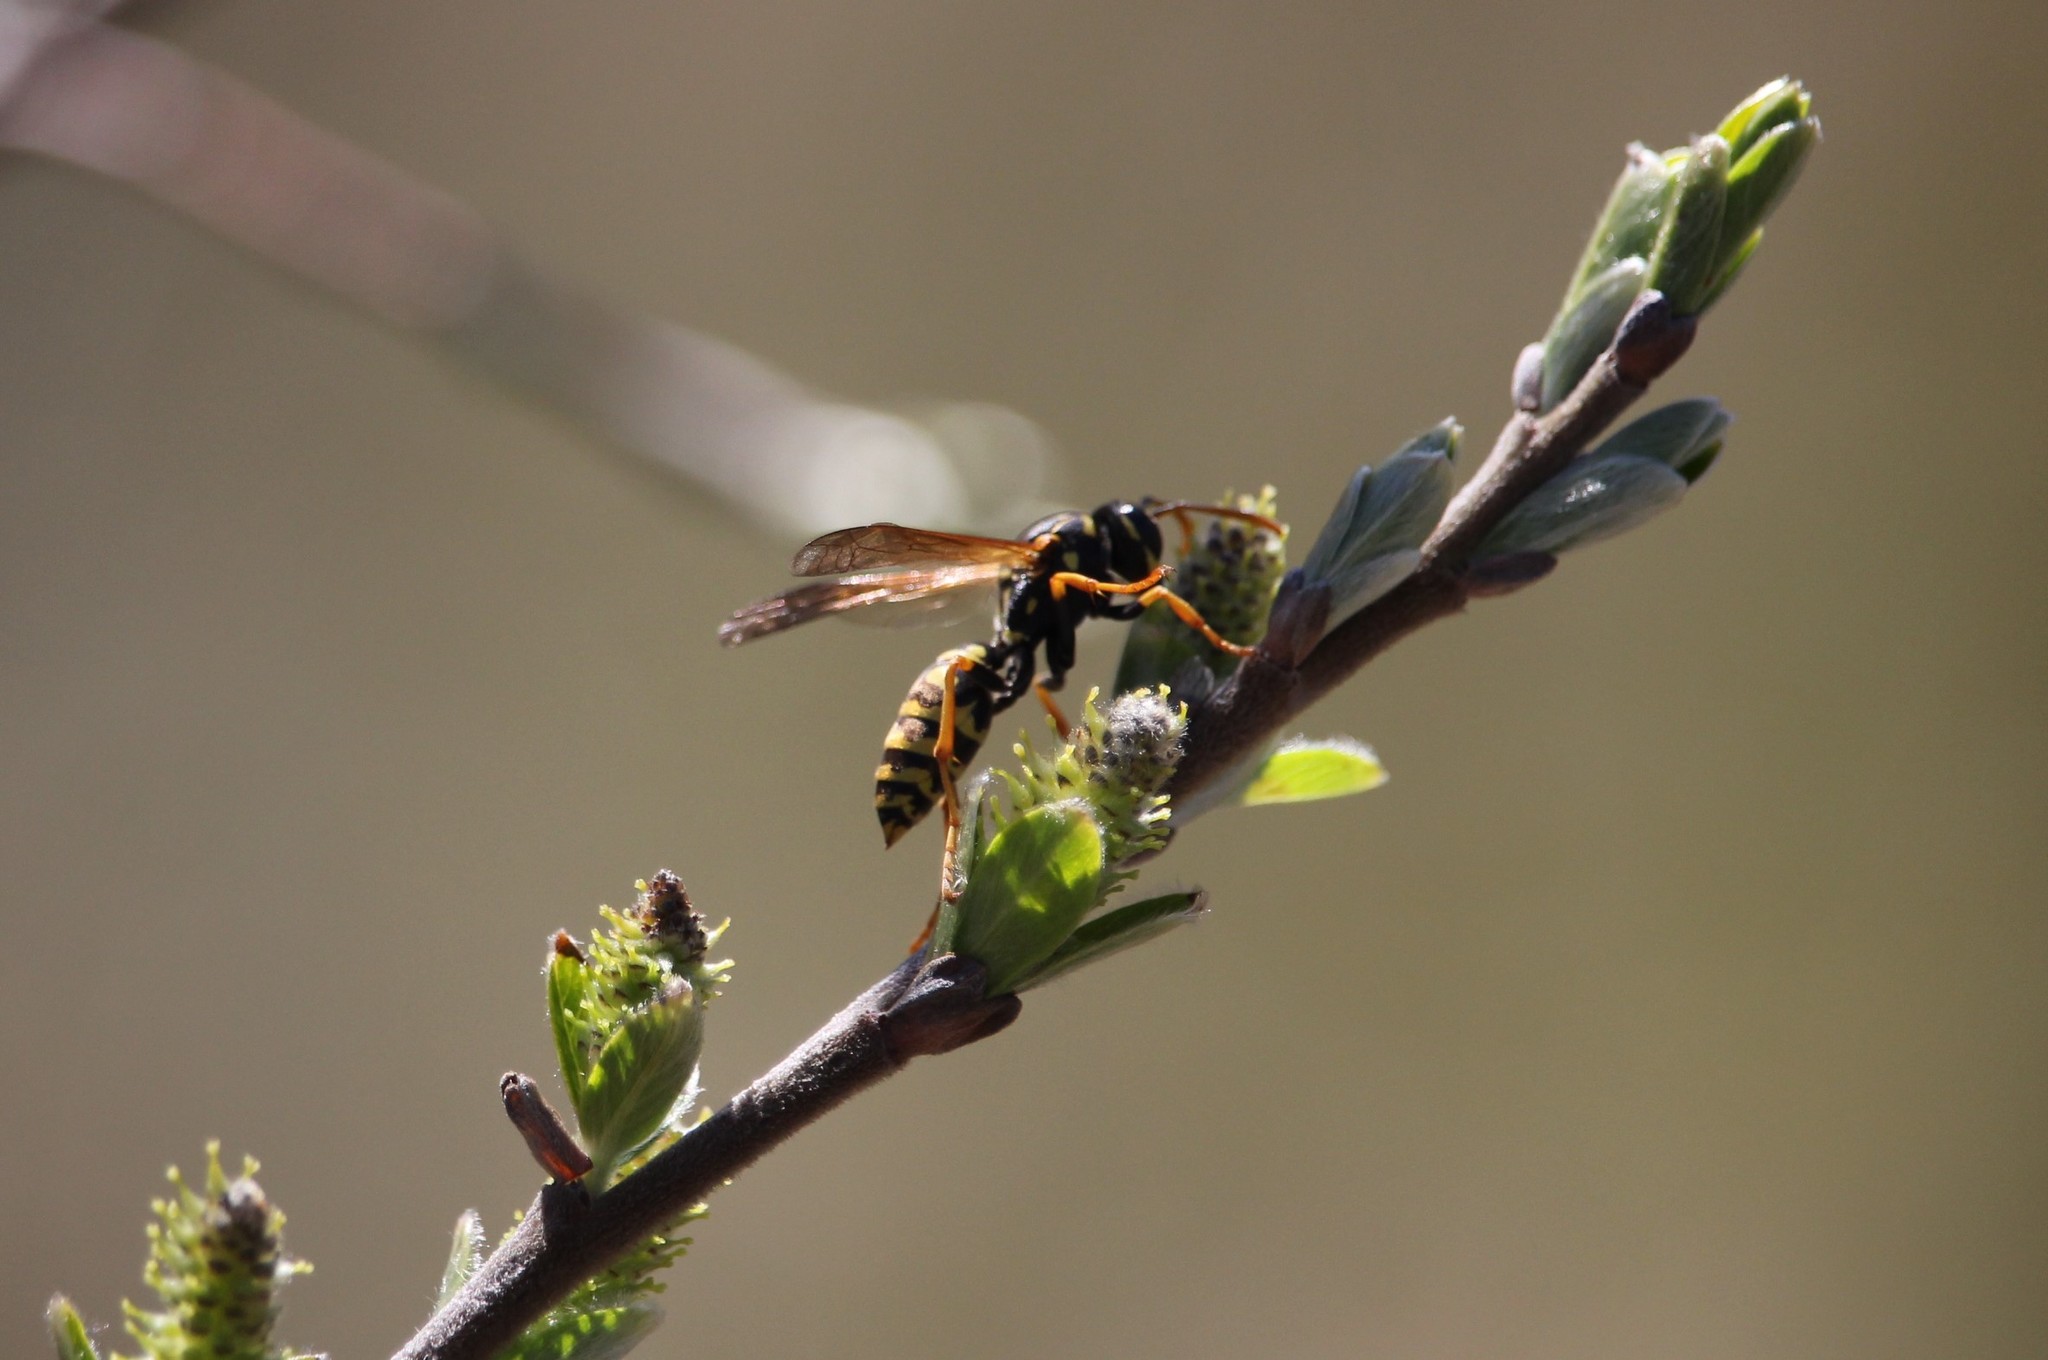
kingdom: Animalia
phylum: Arthropoda
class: Insecta
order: Hymenoptera
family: Eumenidae
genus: Polistes
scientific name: Polistes dominula
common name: Paper wasp
